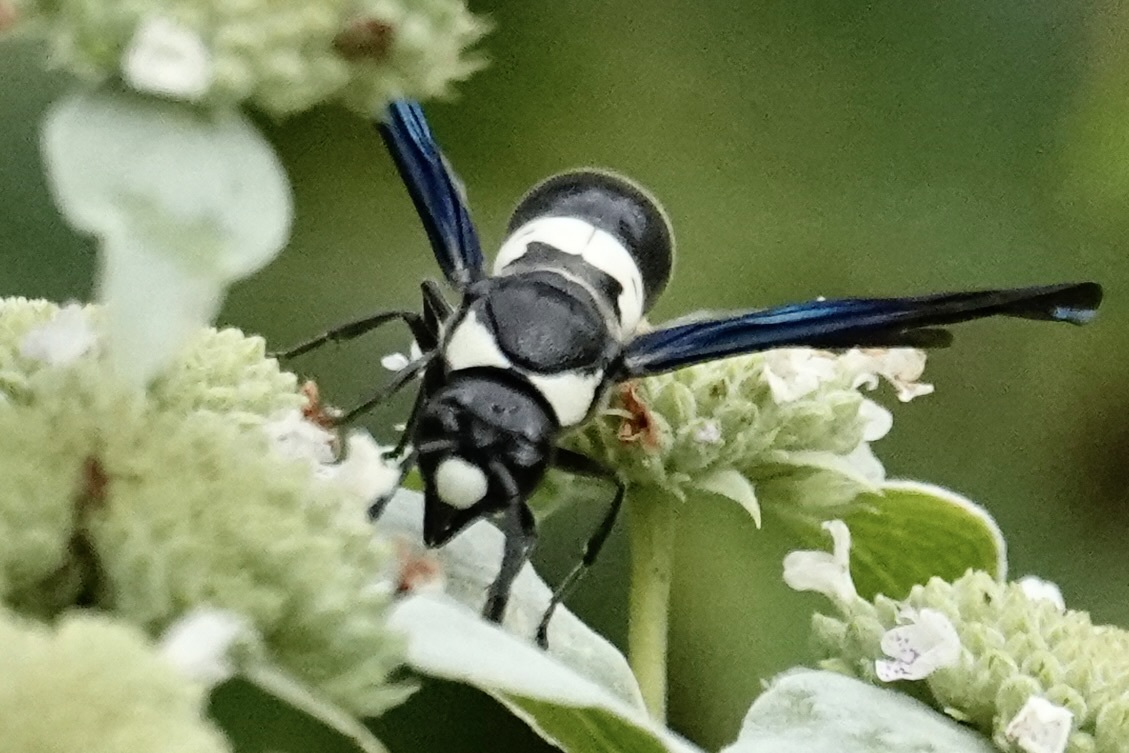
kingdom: Animalia
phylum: Arthropoda
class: Insecta
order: Hymenoptera
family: Eumenidae
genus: Monobia
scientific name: Monobia quadridens
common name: Four-toothed mason wasp
